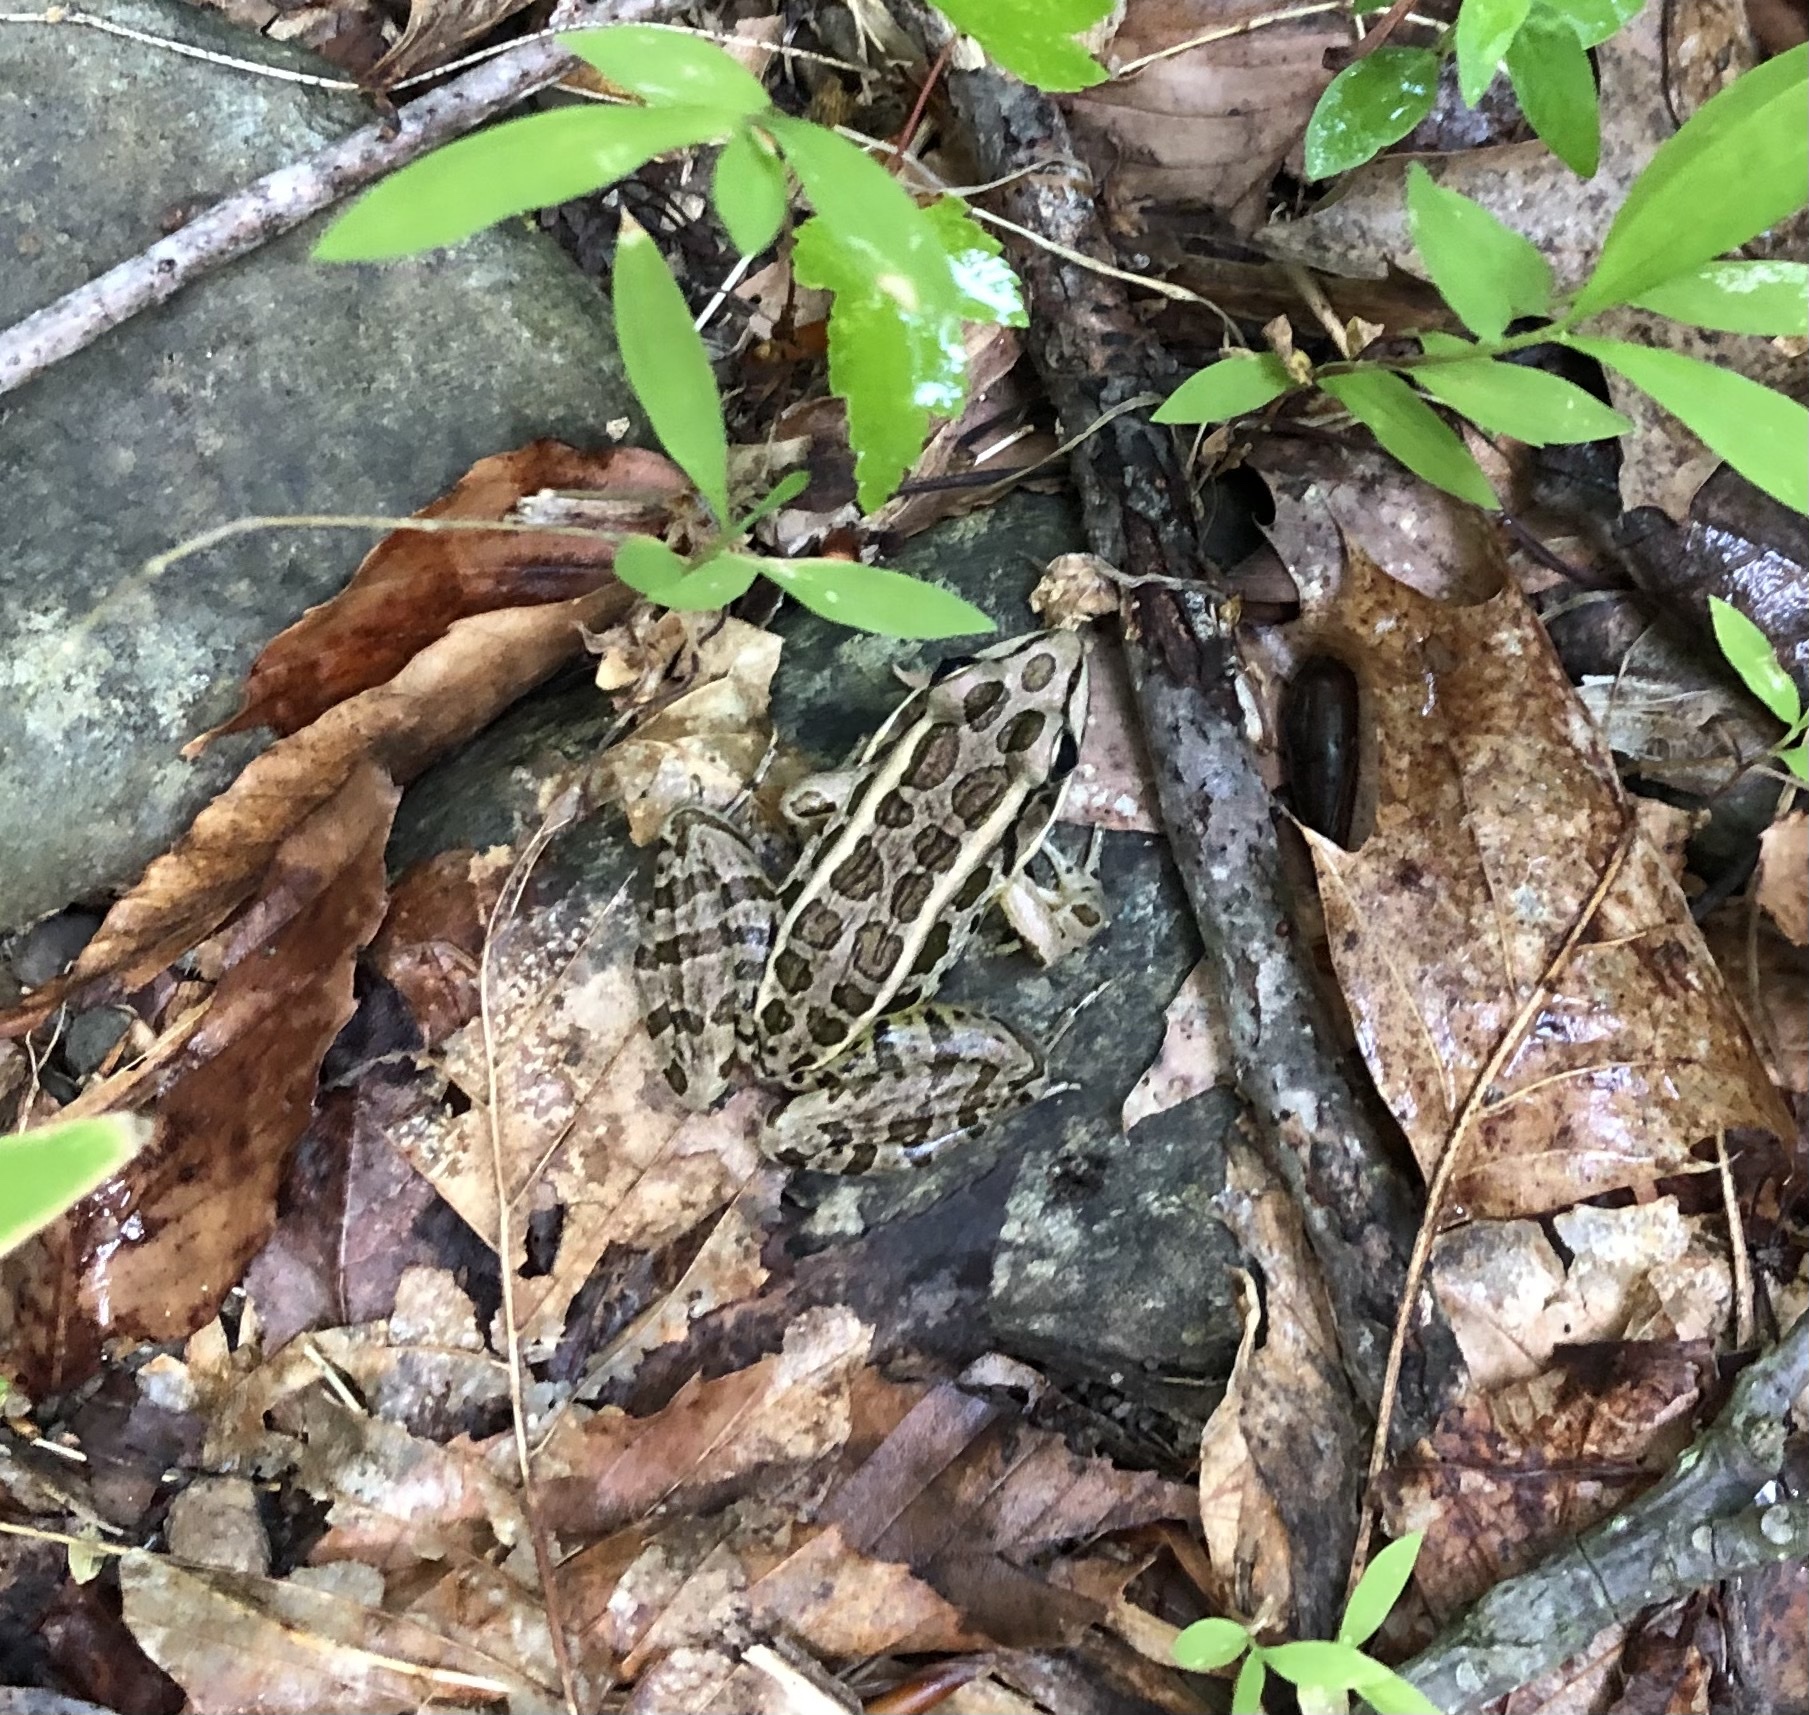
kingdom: Animalia
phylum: Chordata
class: Amphibia
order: Anura
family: Ranidae
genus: Lithobates
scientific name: Lithobates palustris
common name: Pickerel frog
